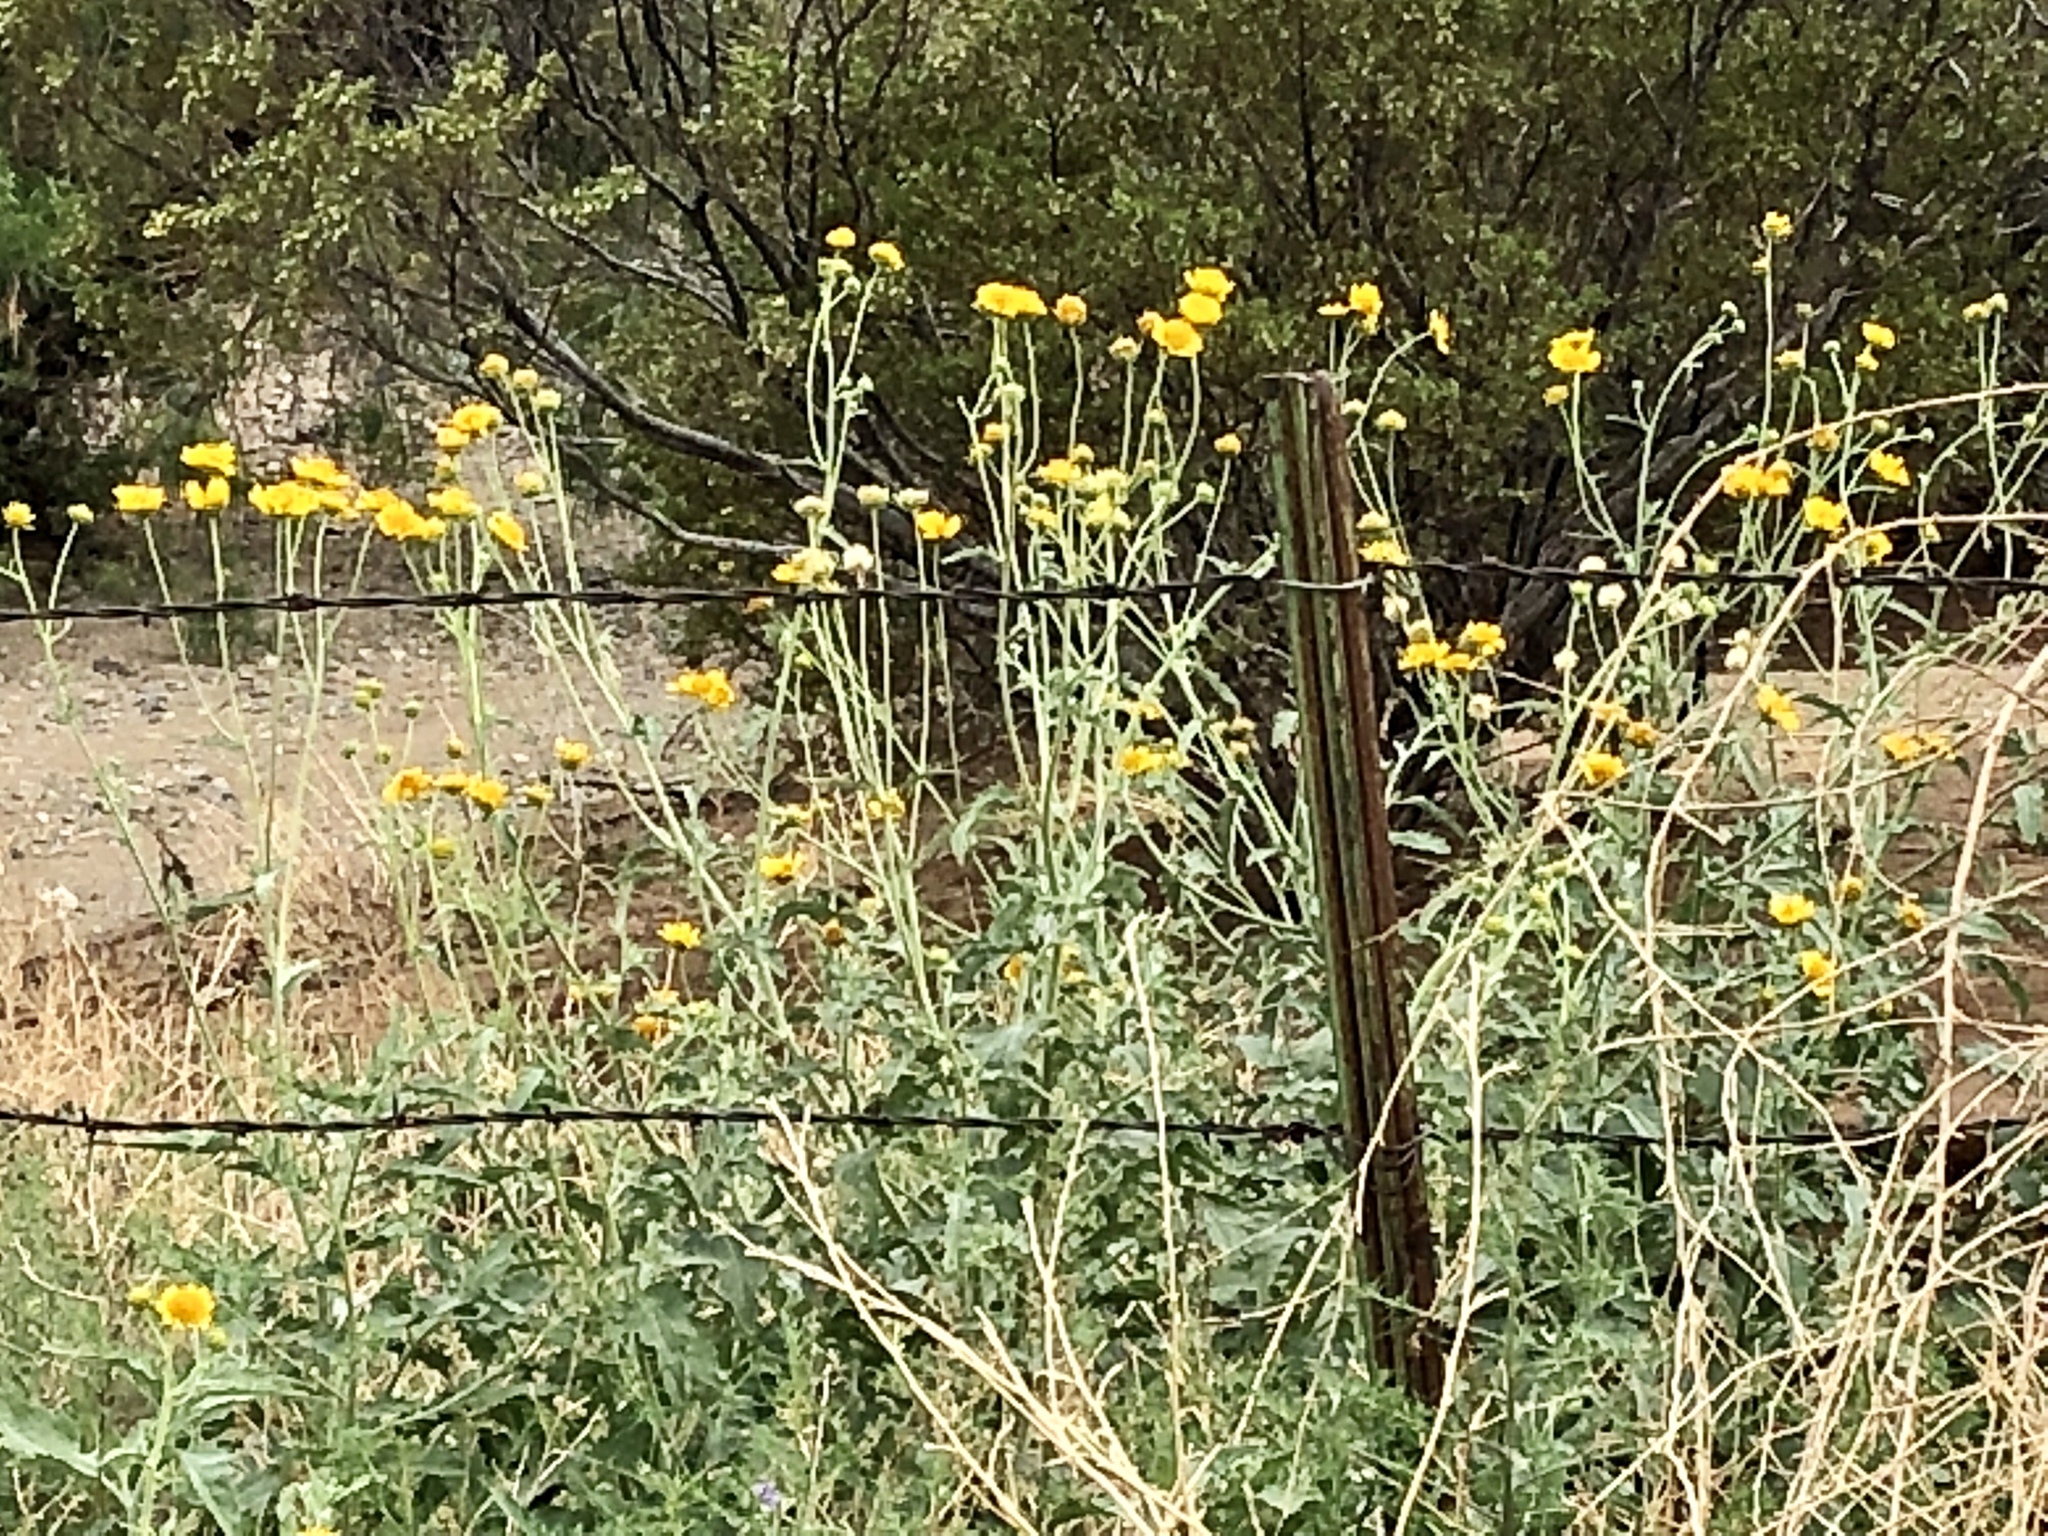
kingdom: Plantae
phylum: Tracheophyta
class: Magnoliopsida
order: Asterales
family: Asteraceae
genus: Verbesina
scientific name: Verbesina encelioides
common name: Golden crownbeard
